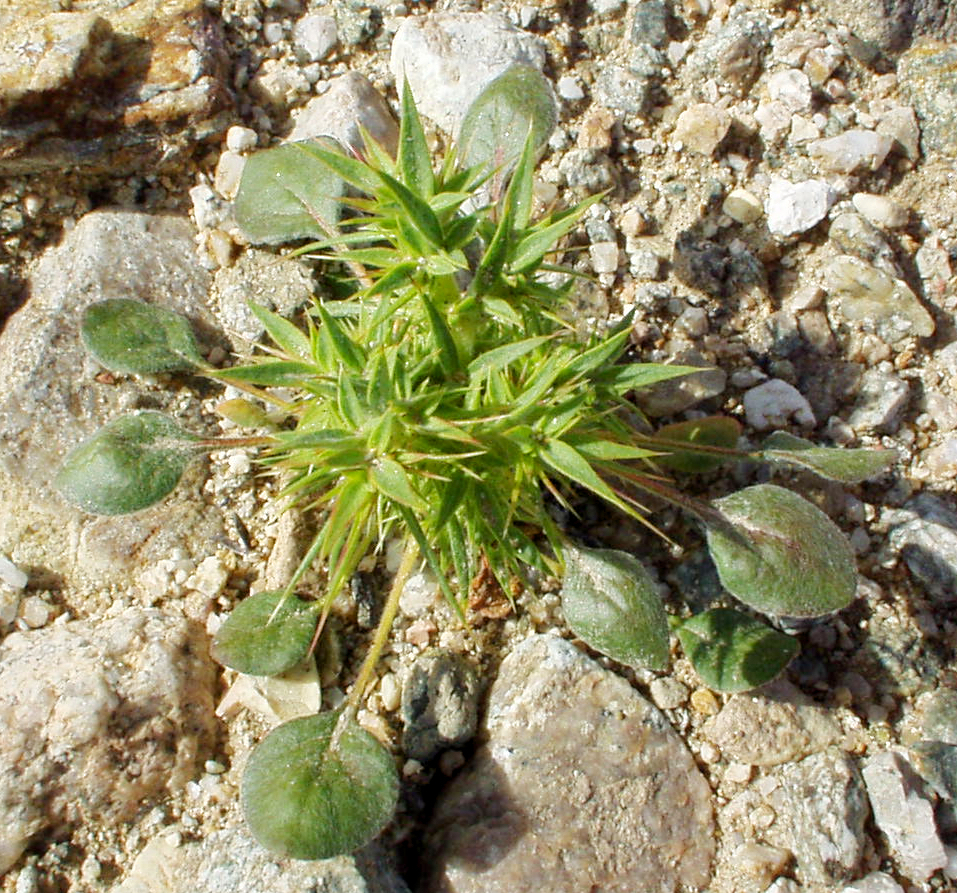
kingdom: Plantae
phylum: Tracheophyta
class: Magnoliopsida
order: Caryophyllales
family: Polygonaceae
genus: Chorizanthe
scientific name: Chorizanthe rigida
